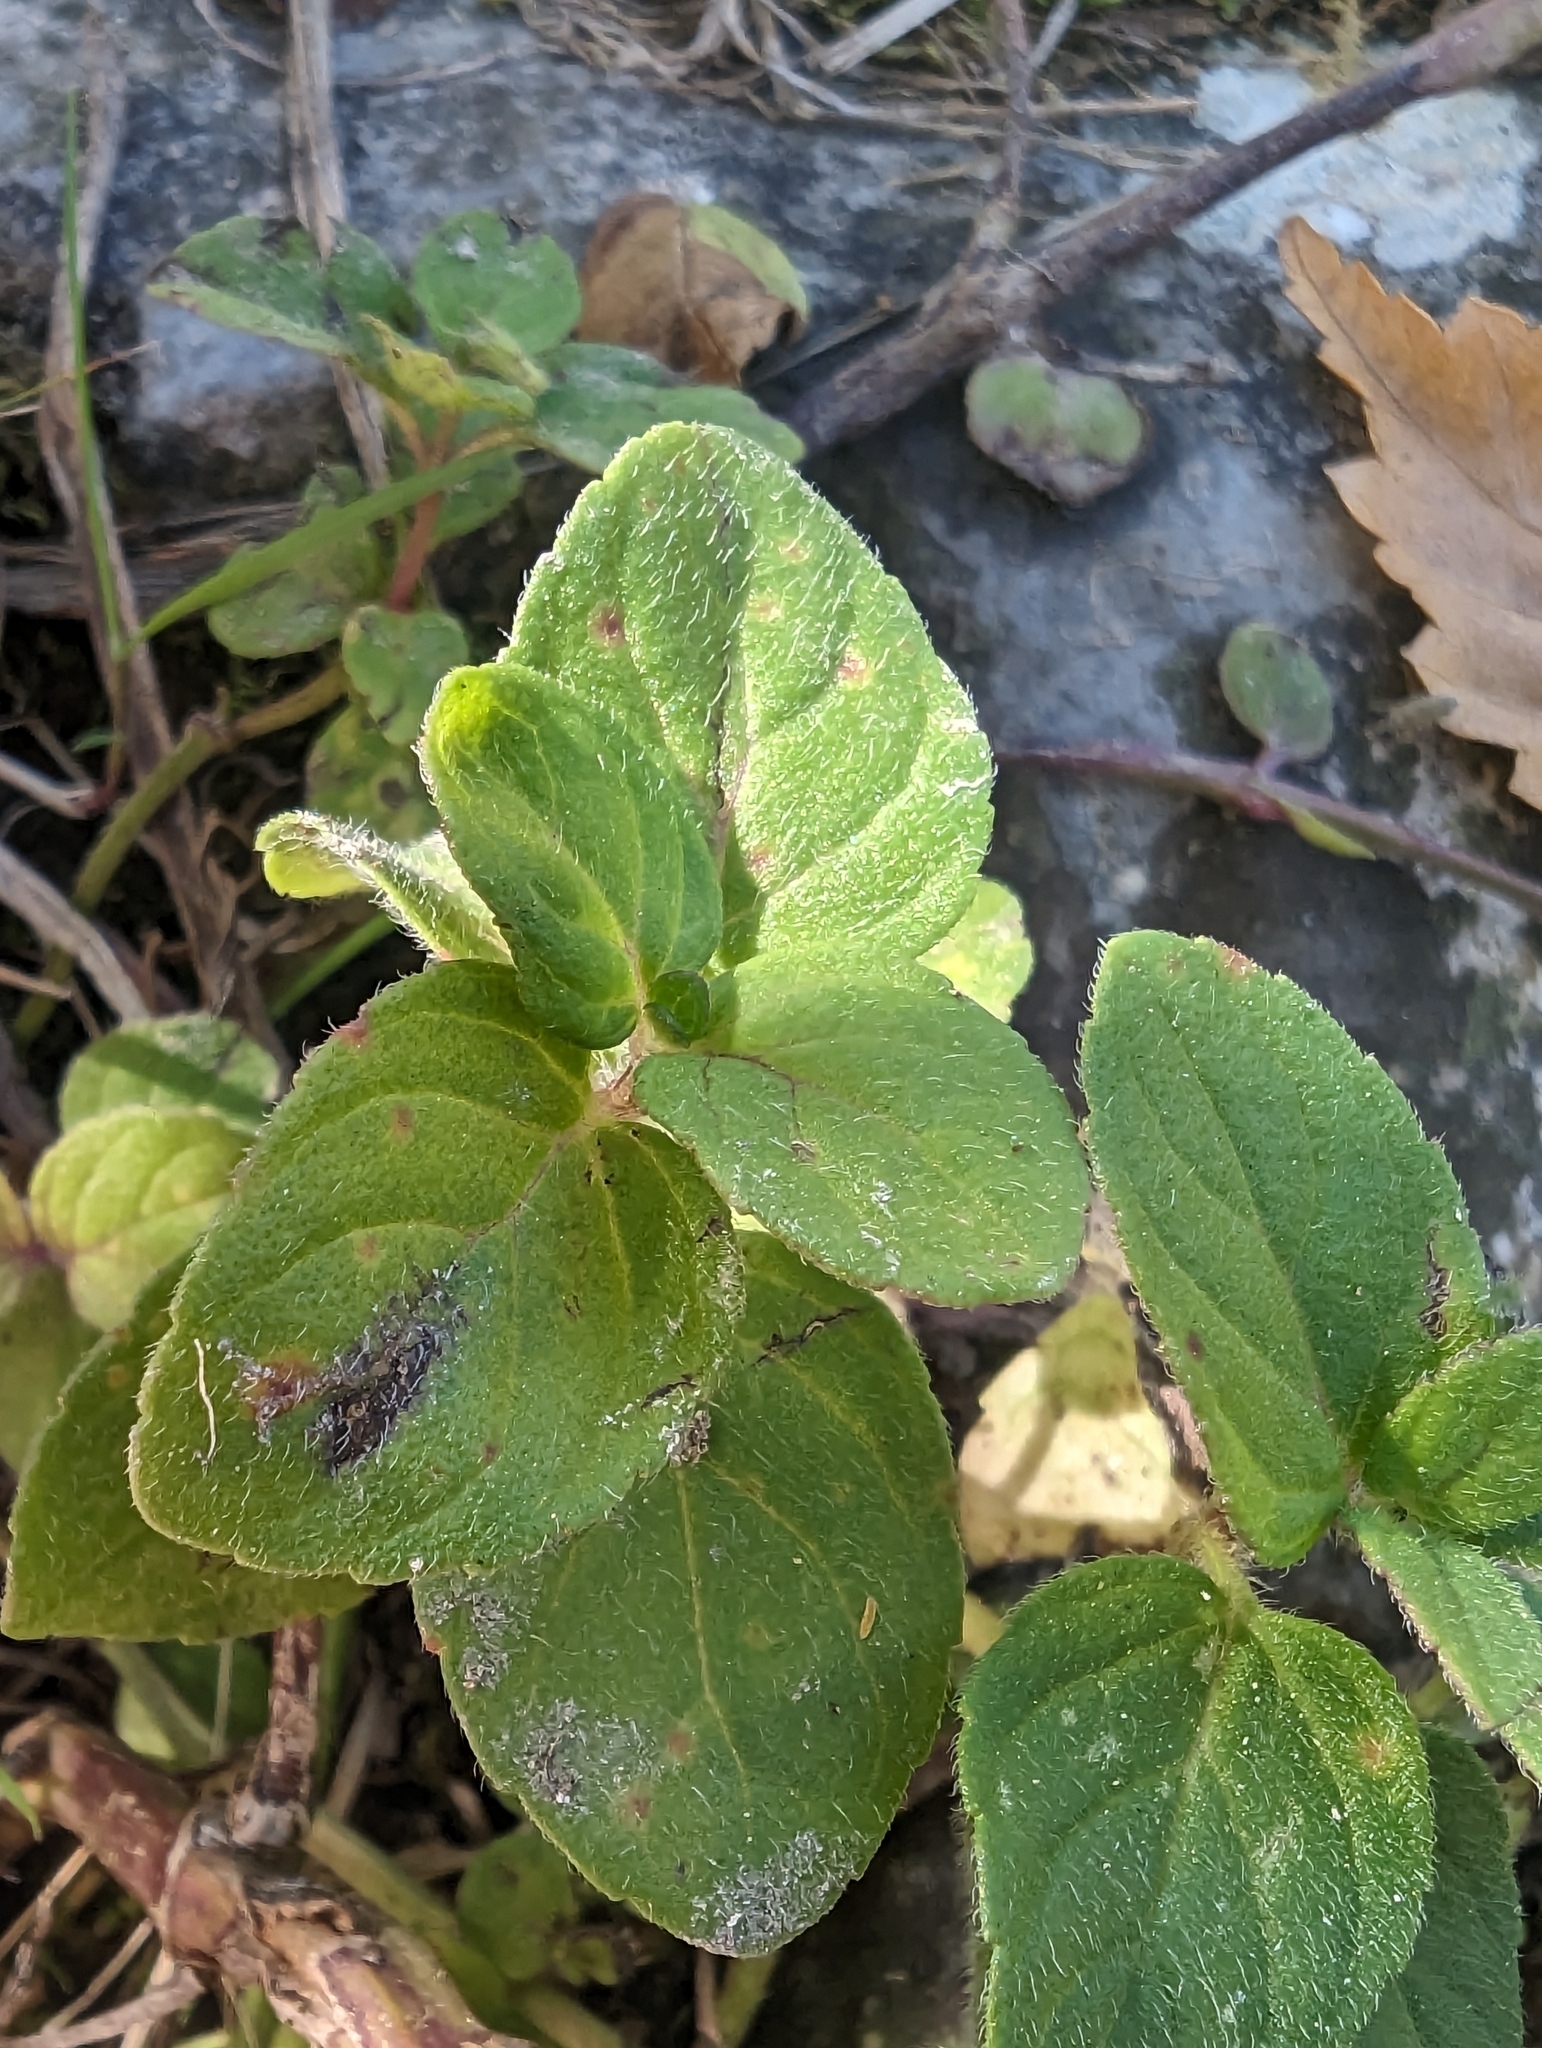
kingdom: Plantae
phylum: Tracheophyta
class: Magnoliopsida
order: Lamiales
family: Lamiaceae
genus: Mentha
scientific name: Mentha aquatica
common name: Water mint
